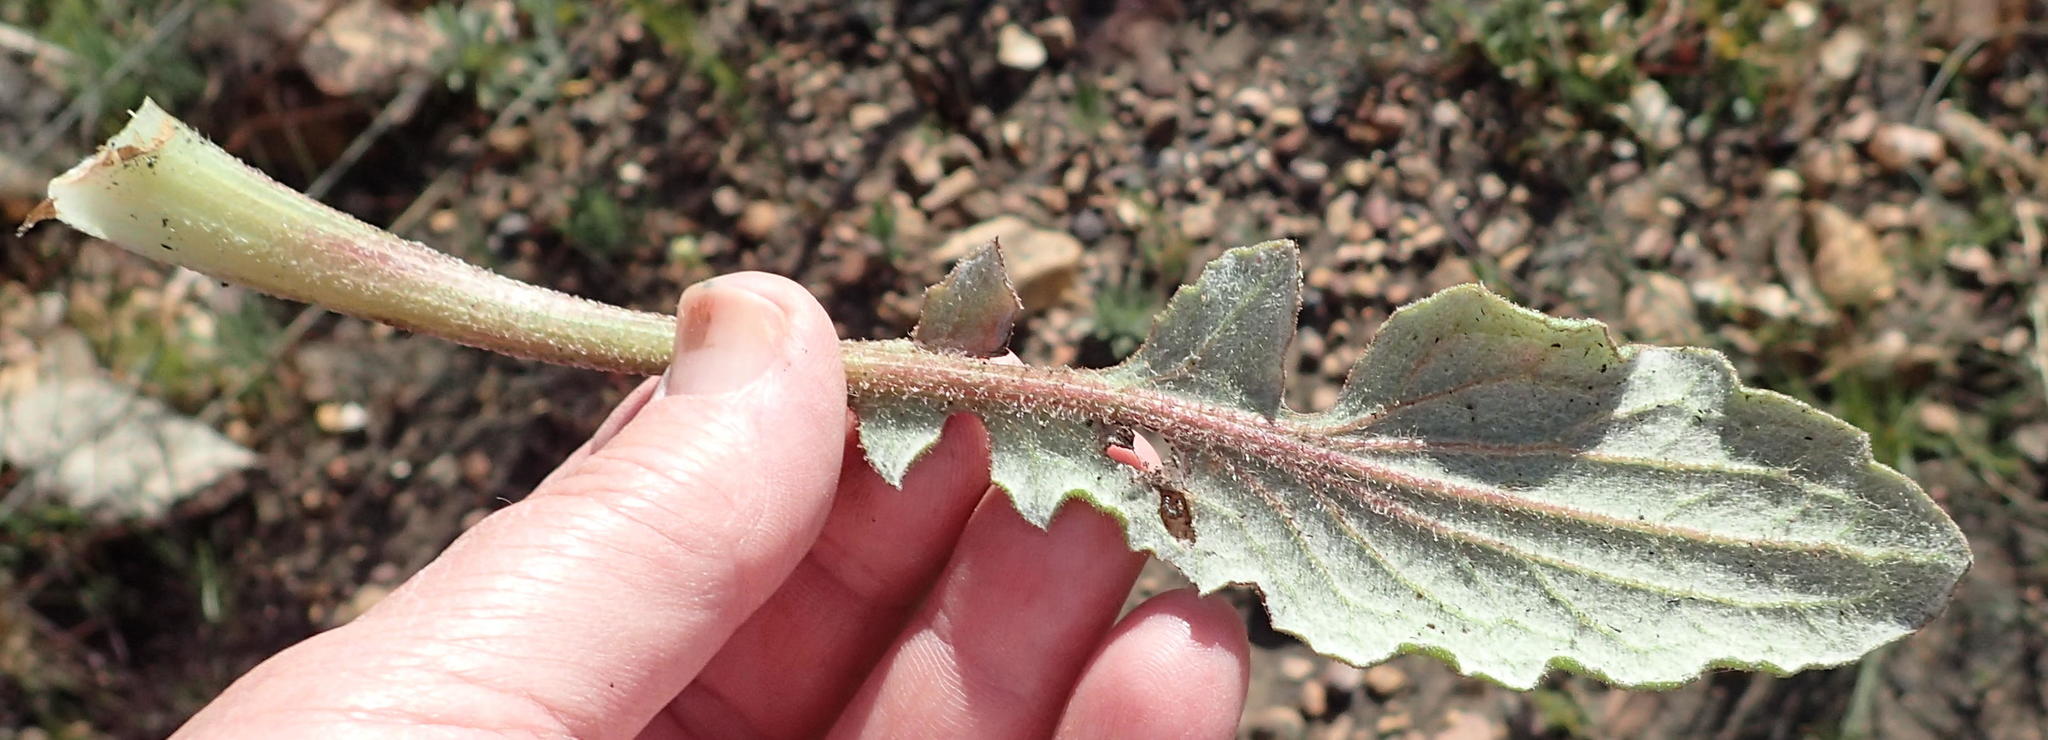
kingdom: Plantae
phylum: Tracheophyta
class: Magnoliopsida
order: Asterales
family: Asteraceae
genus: Arctotis
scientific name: Arctotis acaulis
